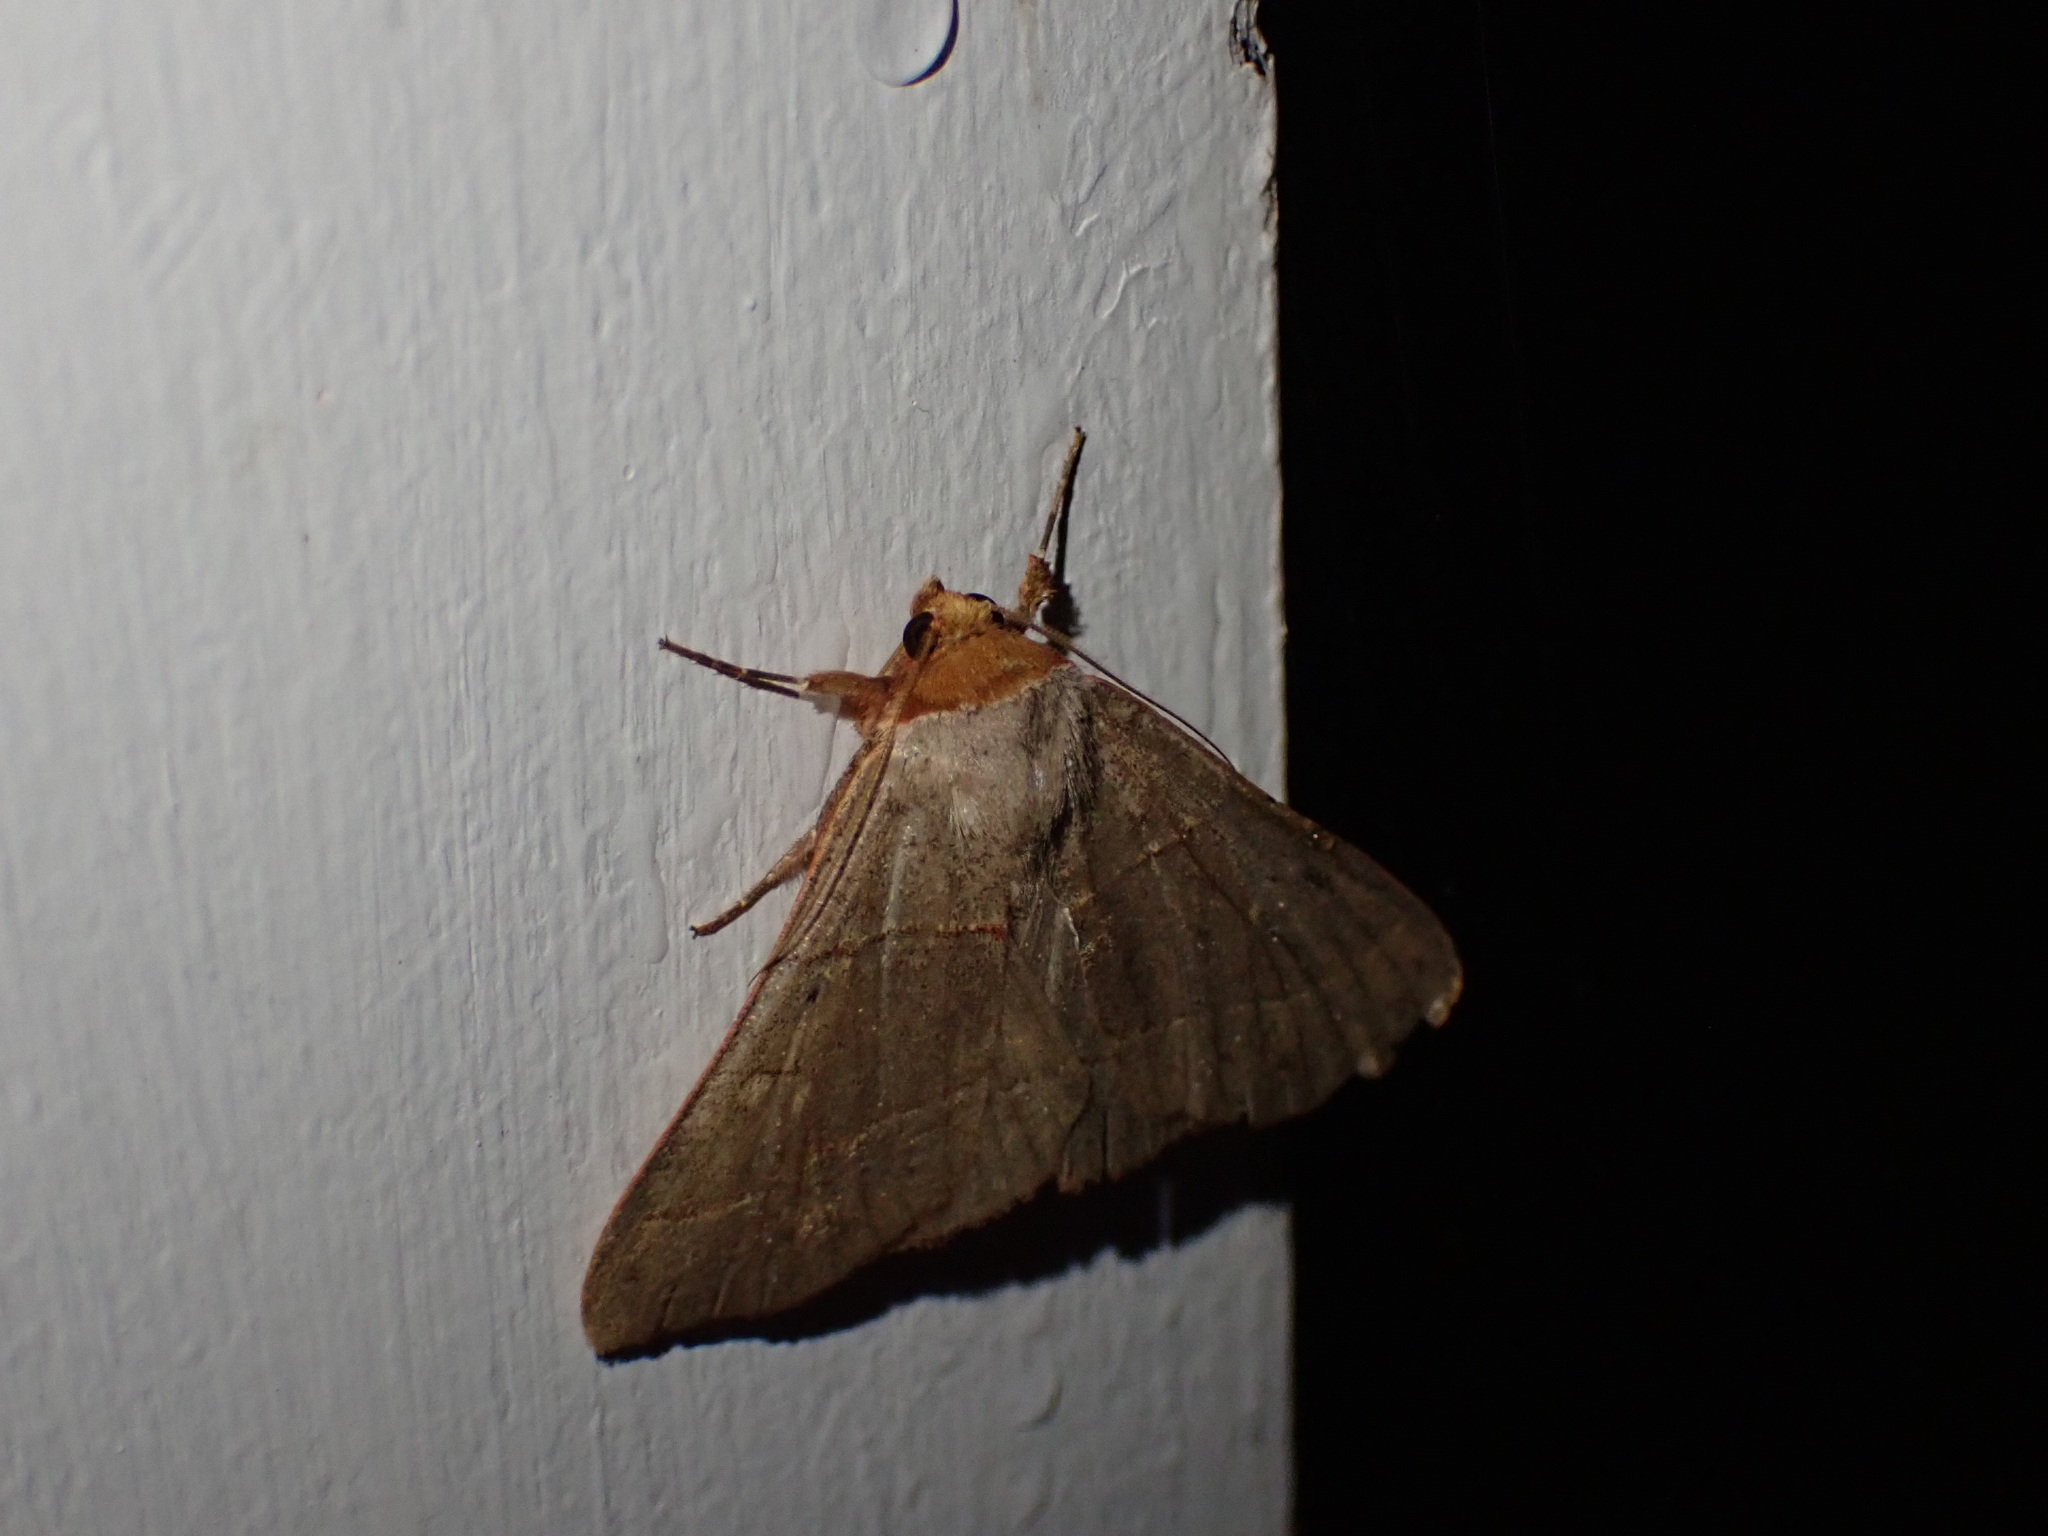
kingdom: Animalia
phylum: Arthropoda
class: Insecta
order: Lepidoptera
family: Erebidae
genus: Panopoda
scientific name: Panopoda rufimargo
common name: Red-lined panopoda moth
